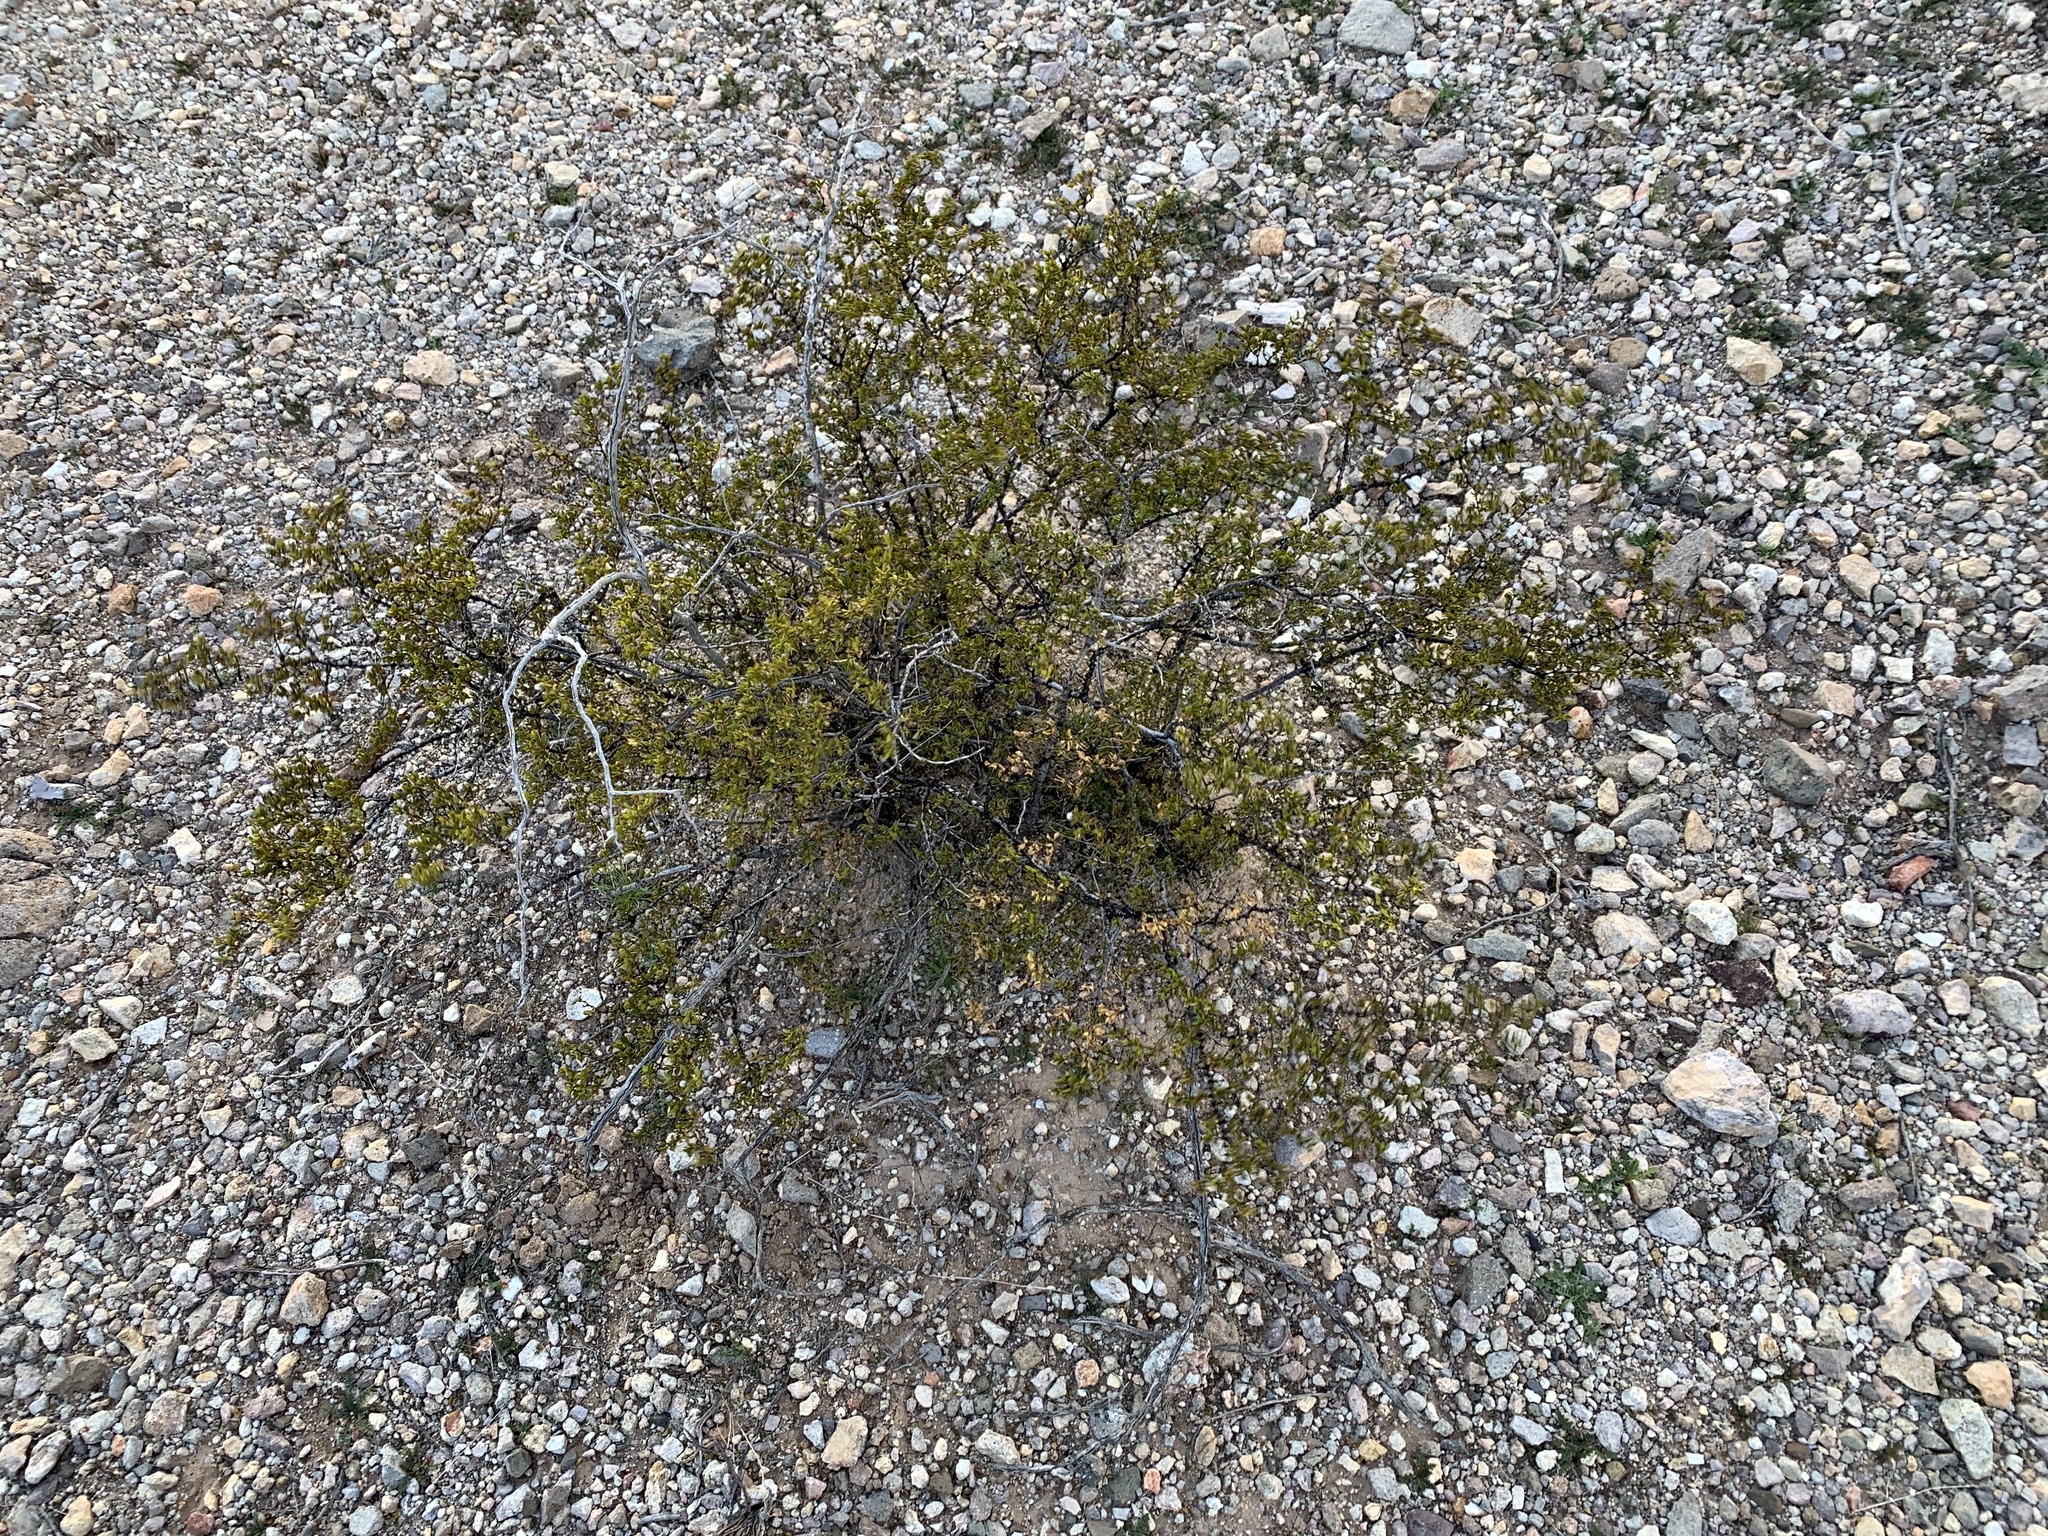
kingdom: Plantae
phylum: Tracheophyta
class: Magnoliopsida
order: Zygophyllales
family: Zygophyllaceae
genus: Larrea
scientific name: Larrea tridentata
